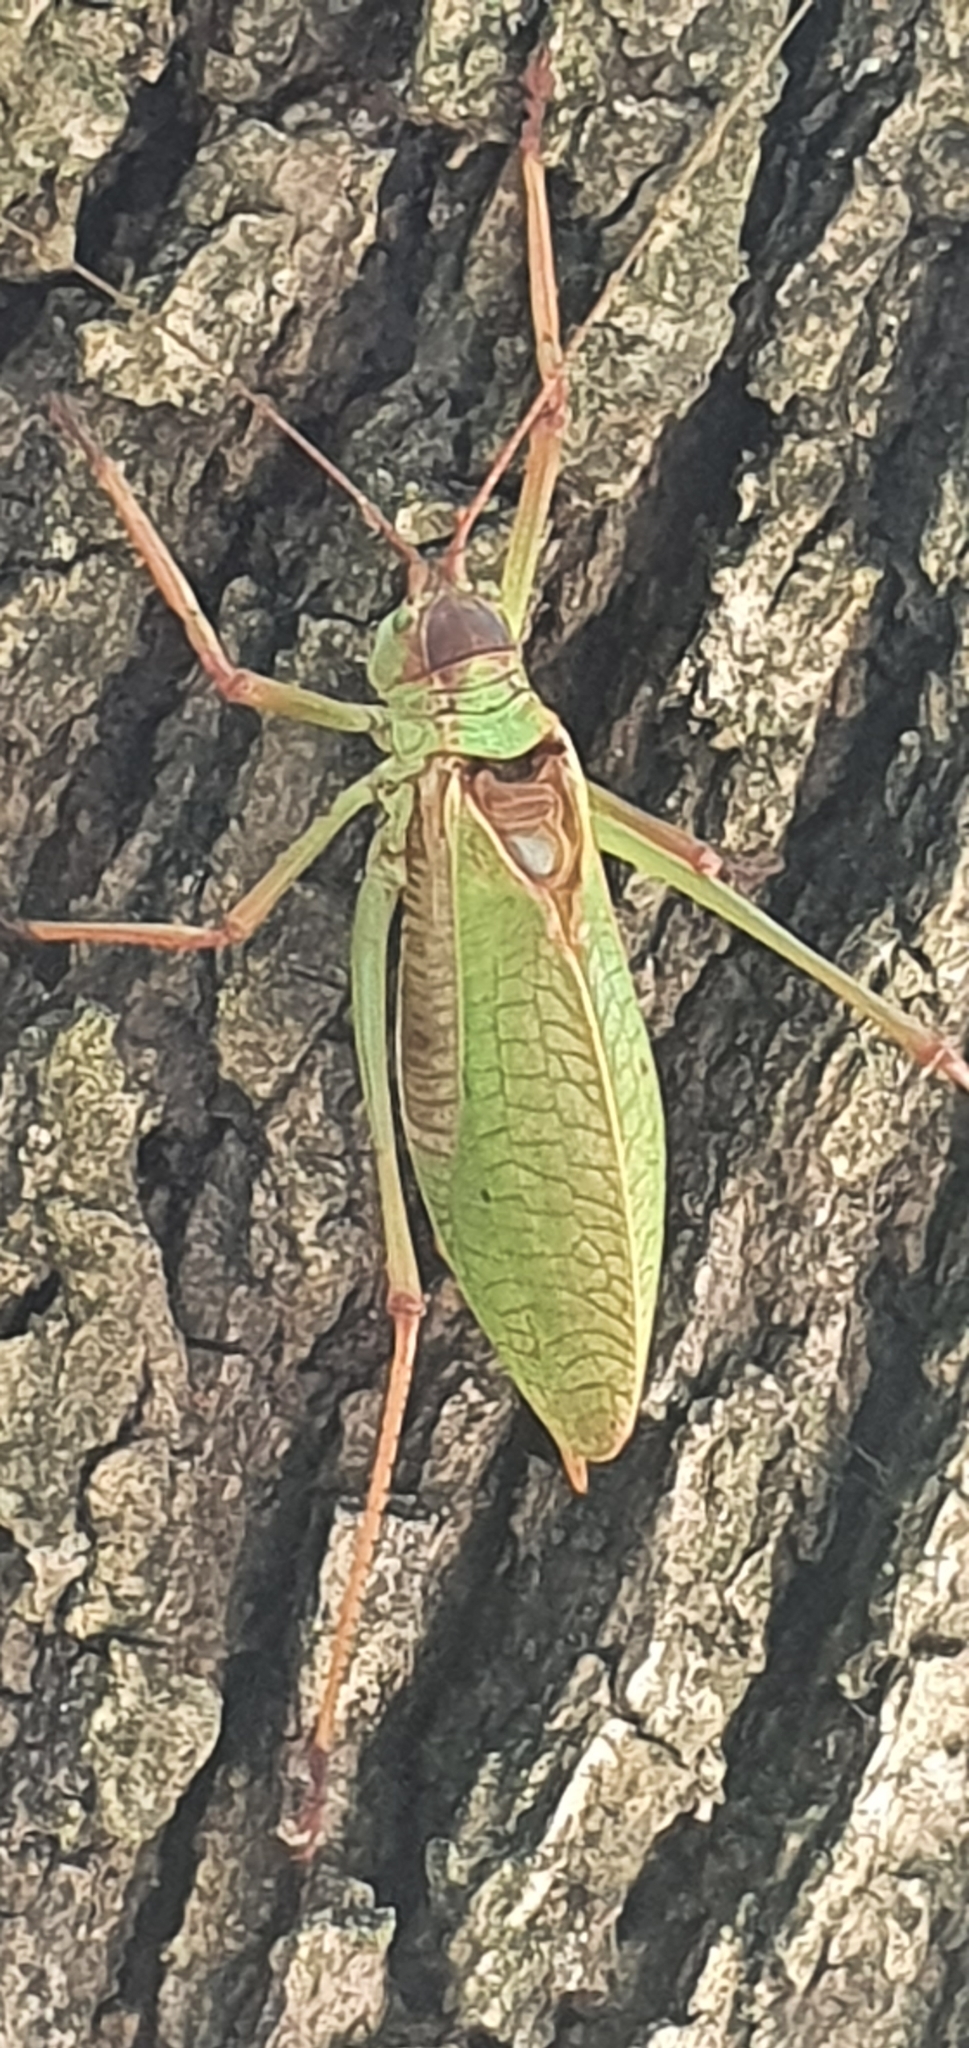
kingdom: Animalia
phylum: Arthropoda
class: Insecta
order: Orthoptera
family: Tettigoniidae
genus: Pterophylla
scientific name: Pterophylla beltrani
